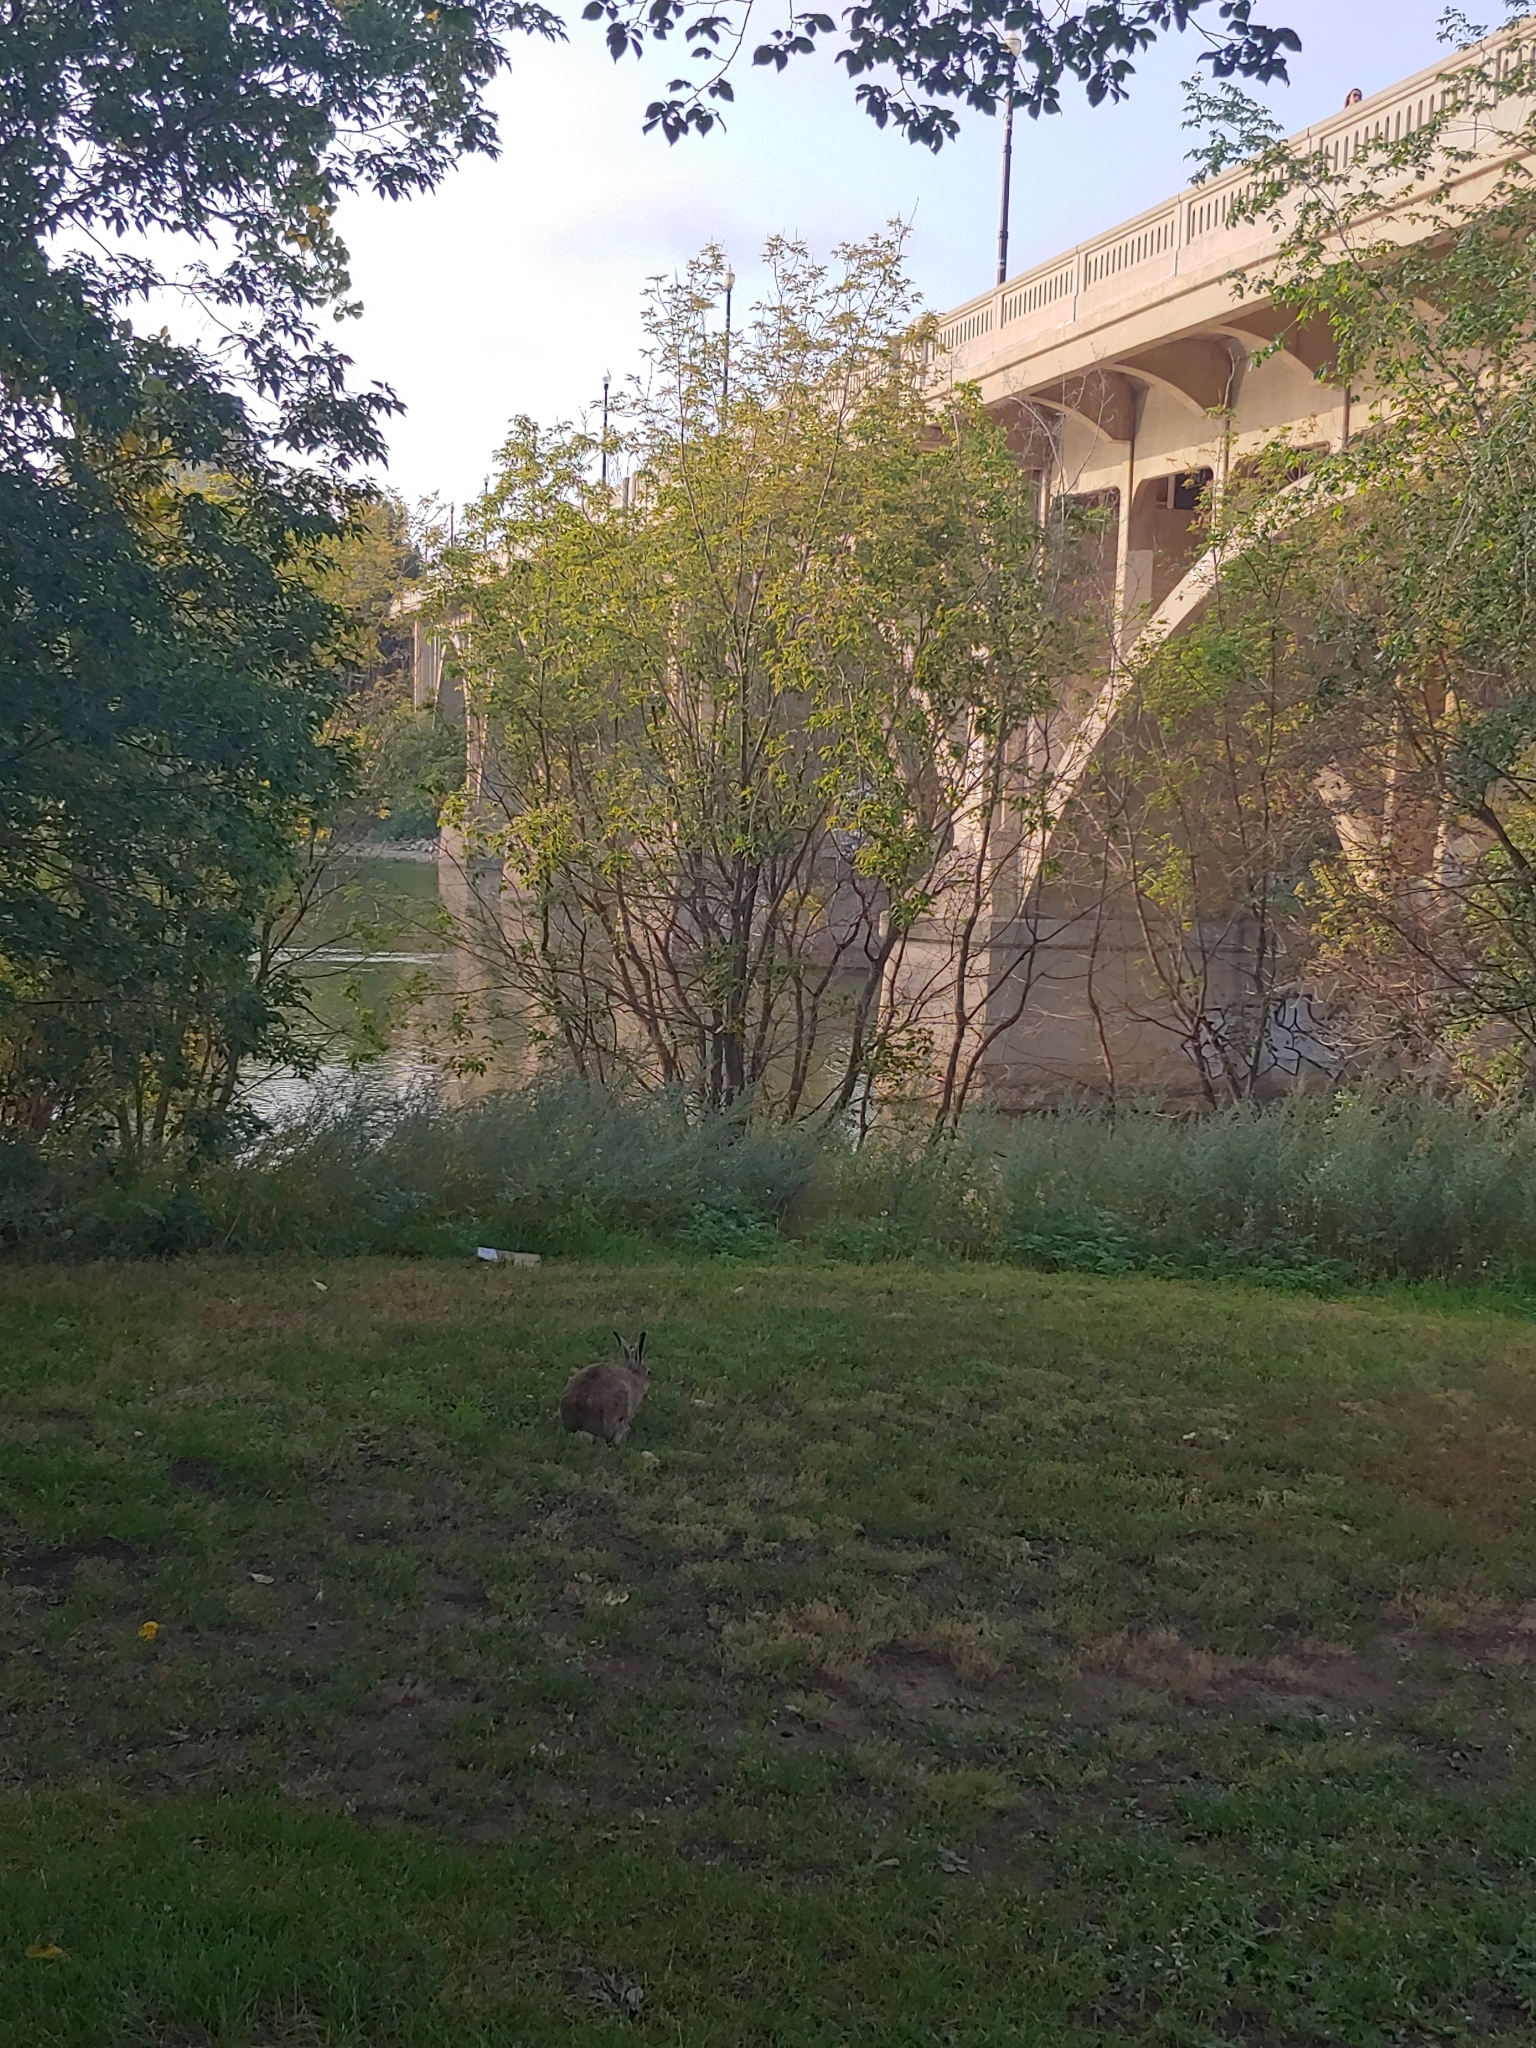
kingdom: Animalia
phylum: Chordata
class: Mammalia
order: Lagomorpha
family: Leporidae
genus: Lepus
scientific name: Lepus townsendii
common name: White-tailed jackrabbit
